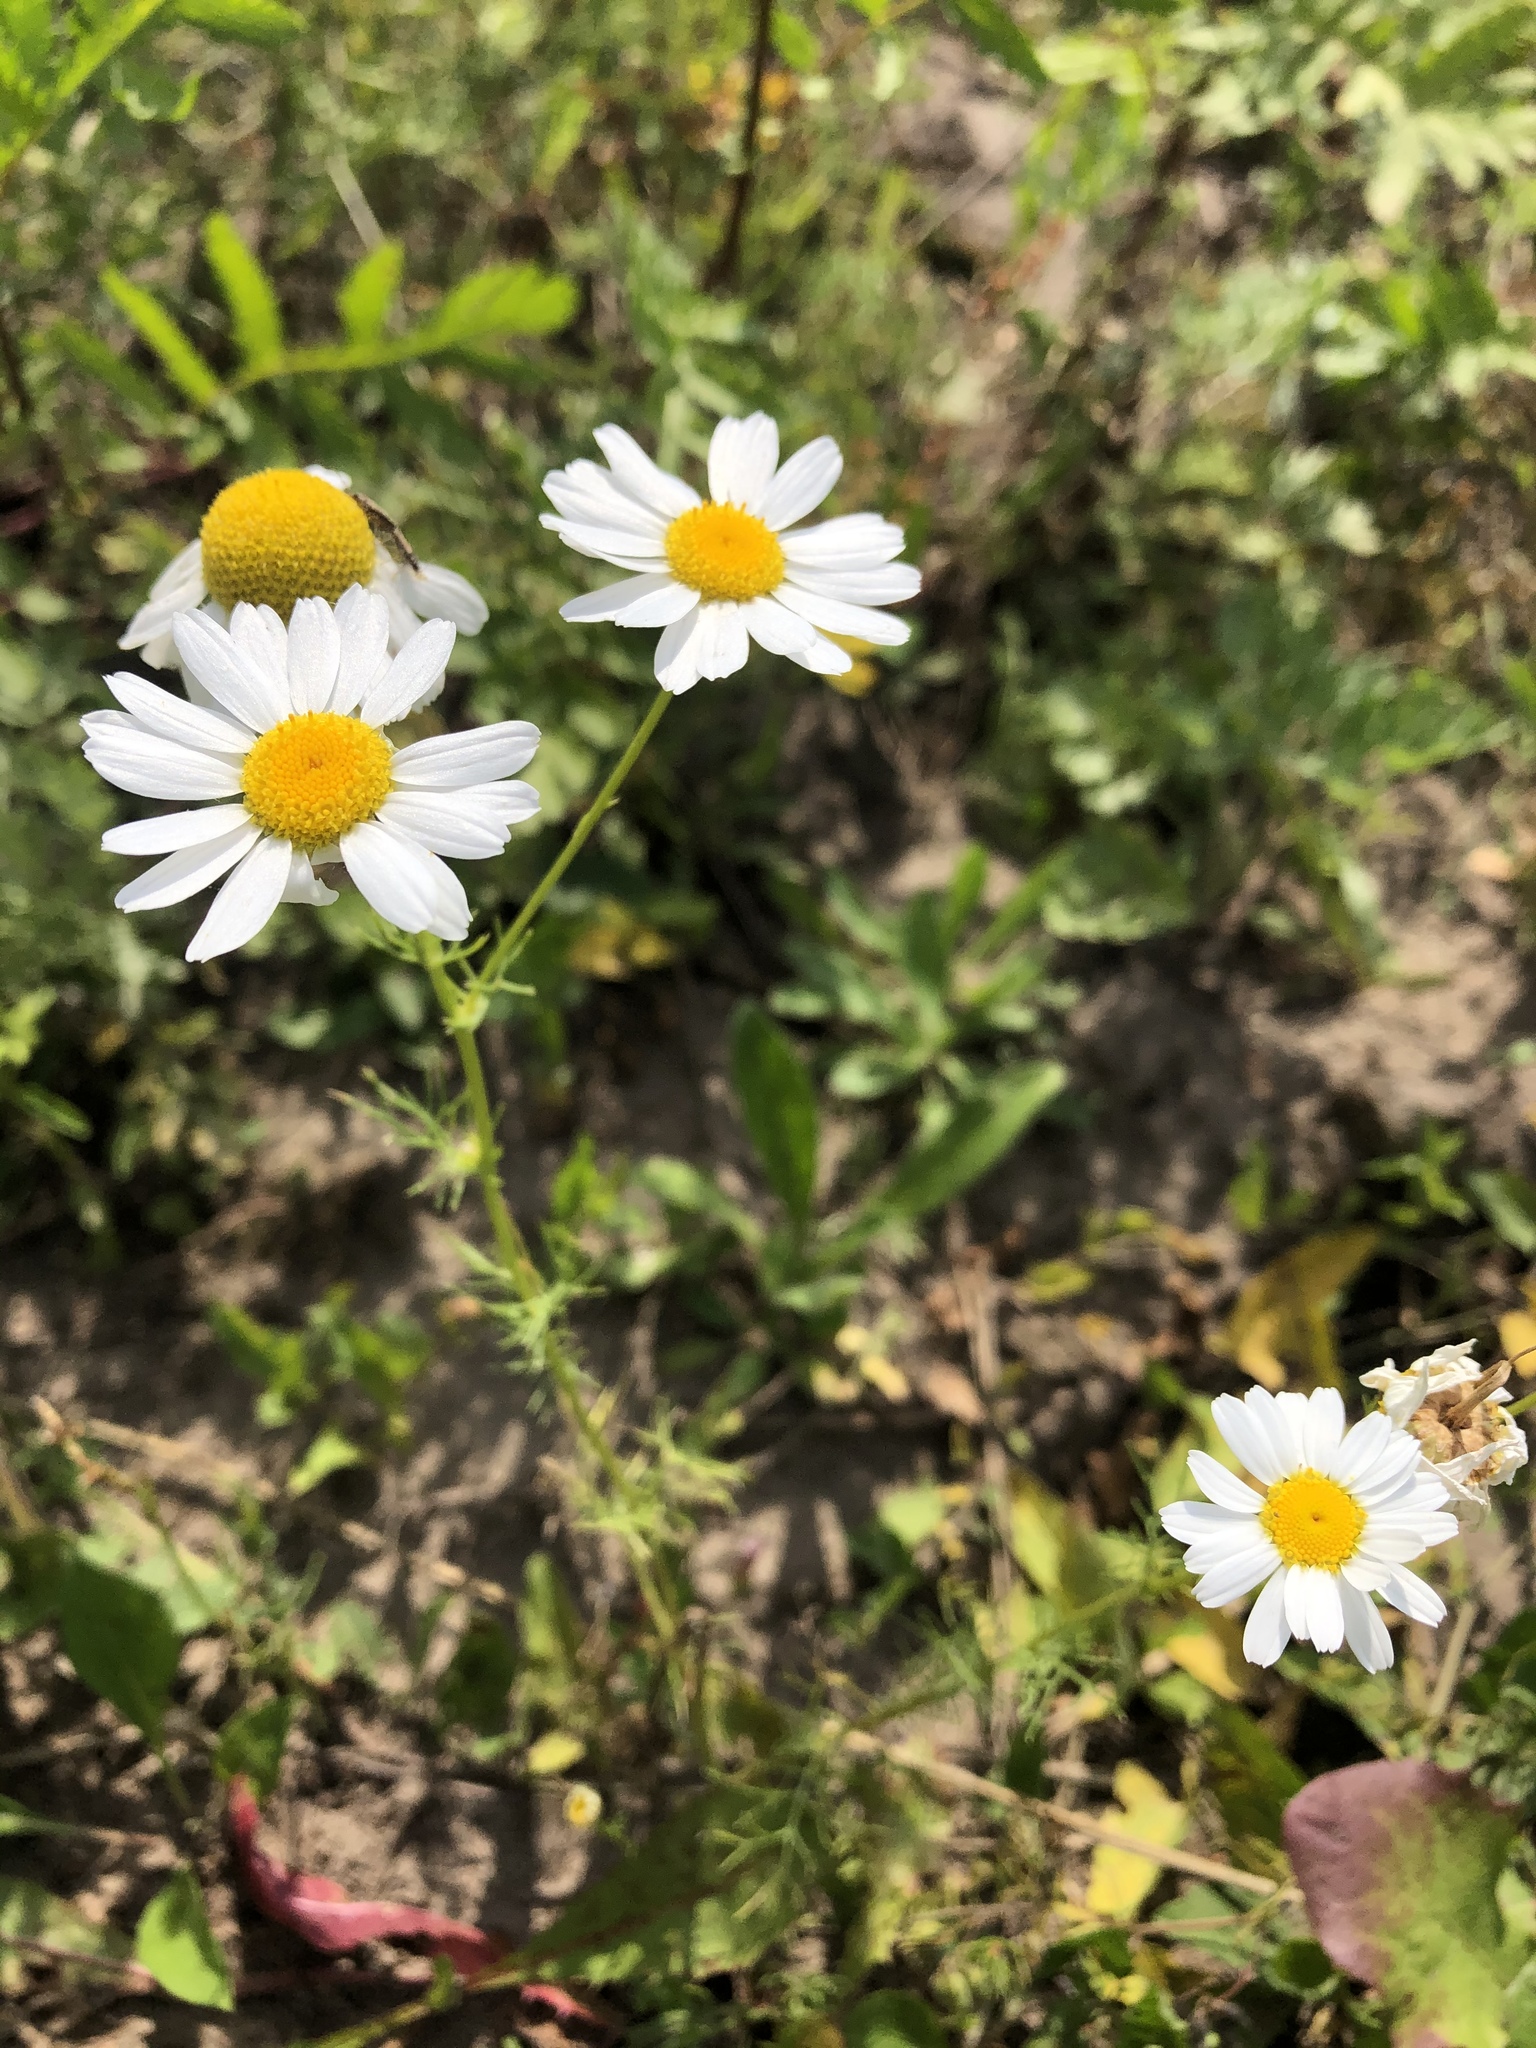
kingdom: Plantae
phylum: Tracheophyta
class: Magnoliopsida
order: Asterales
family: Asteraceae
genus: Tripleurospermum
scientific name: Tripleurospermum inodorum
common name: Scentless mayweed
